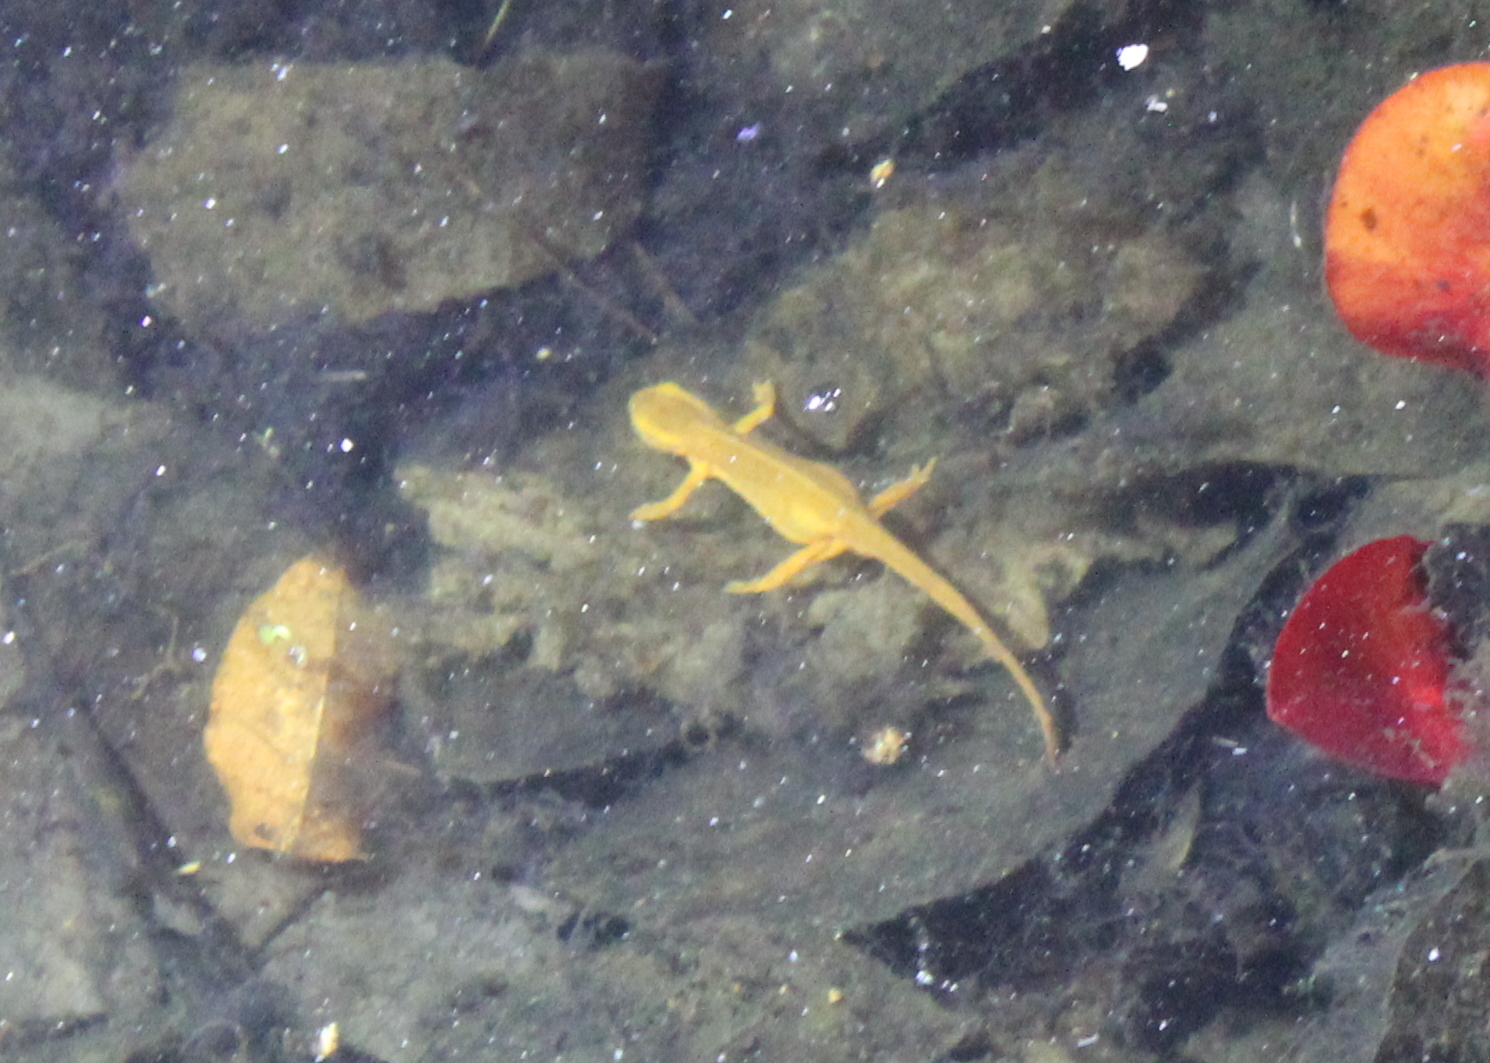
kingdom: Animalia
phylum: Chordata
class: Amphibia
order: Caudata
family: Salamandridae
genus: Notophthalmus
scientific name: Notophthalmus viridescens
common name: Eastern newt
